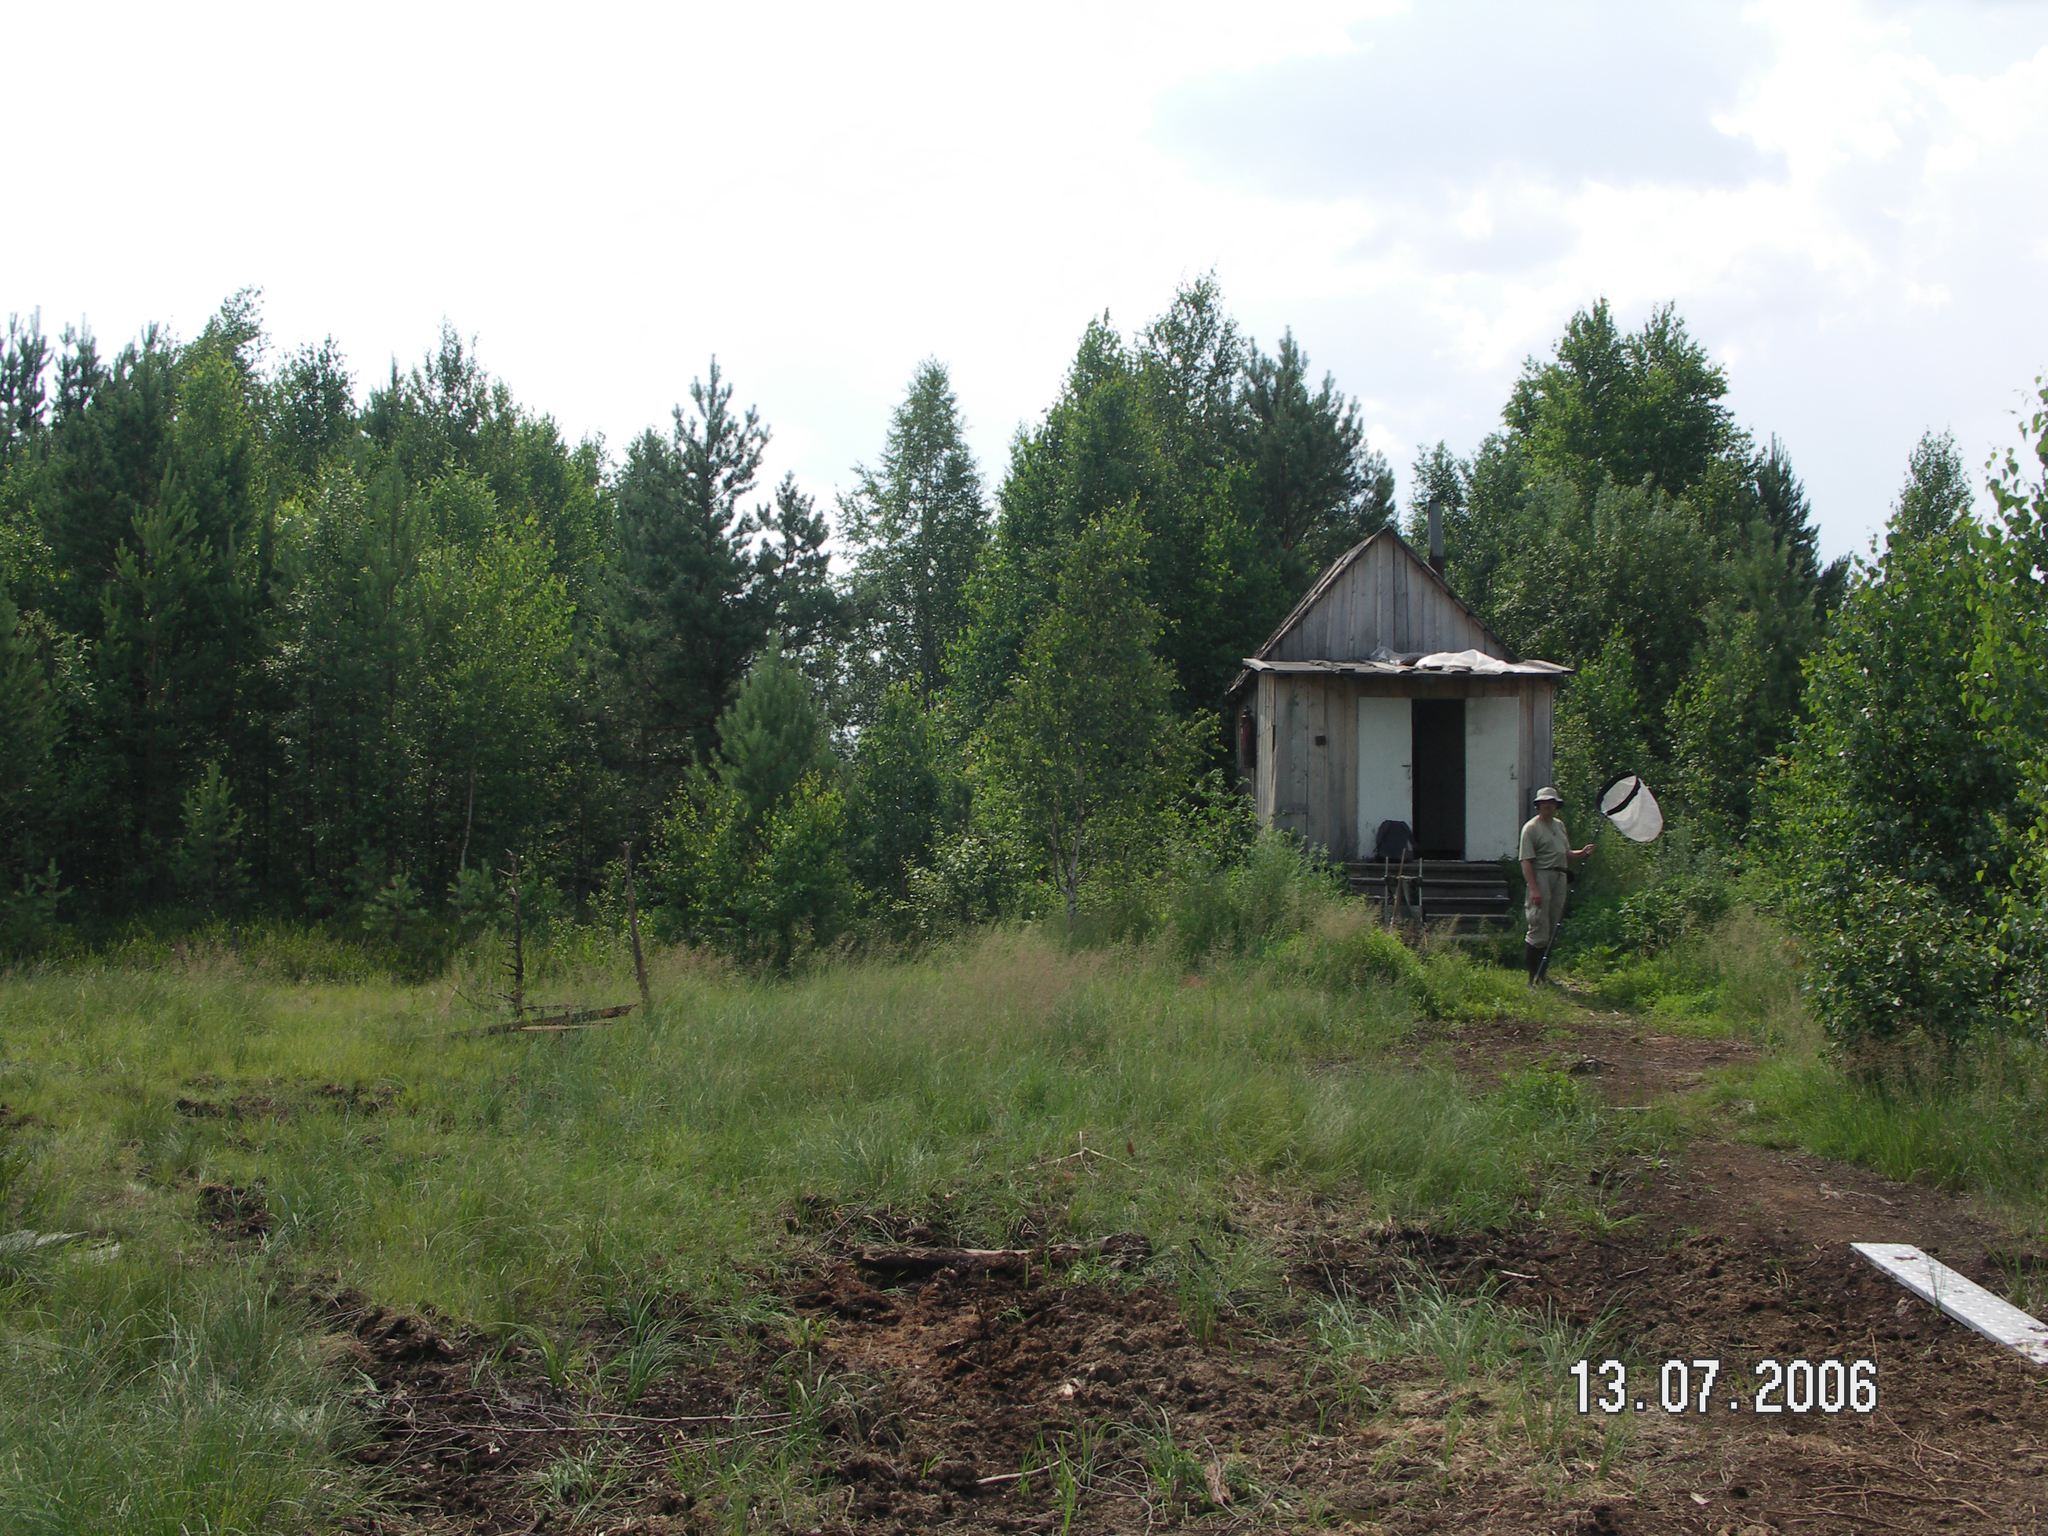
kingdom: Plantae
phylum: Tracheophyta
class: Pinopsida
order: Pinales
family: Pinaceae
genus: Pinus
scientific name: Pinus sylvestris
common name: Scots pine
